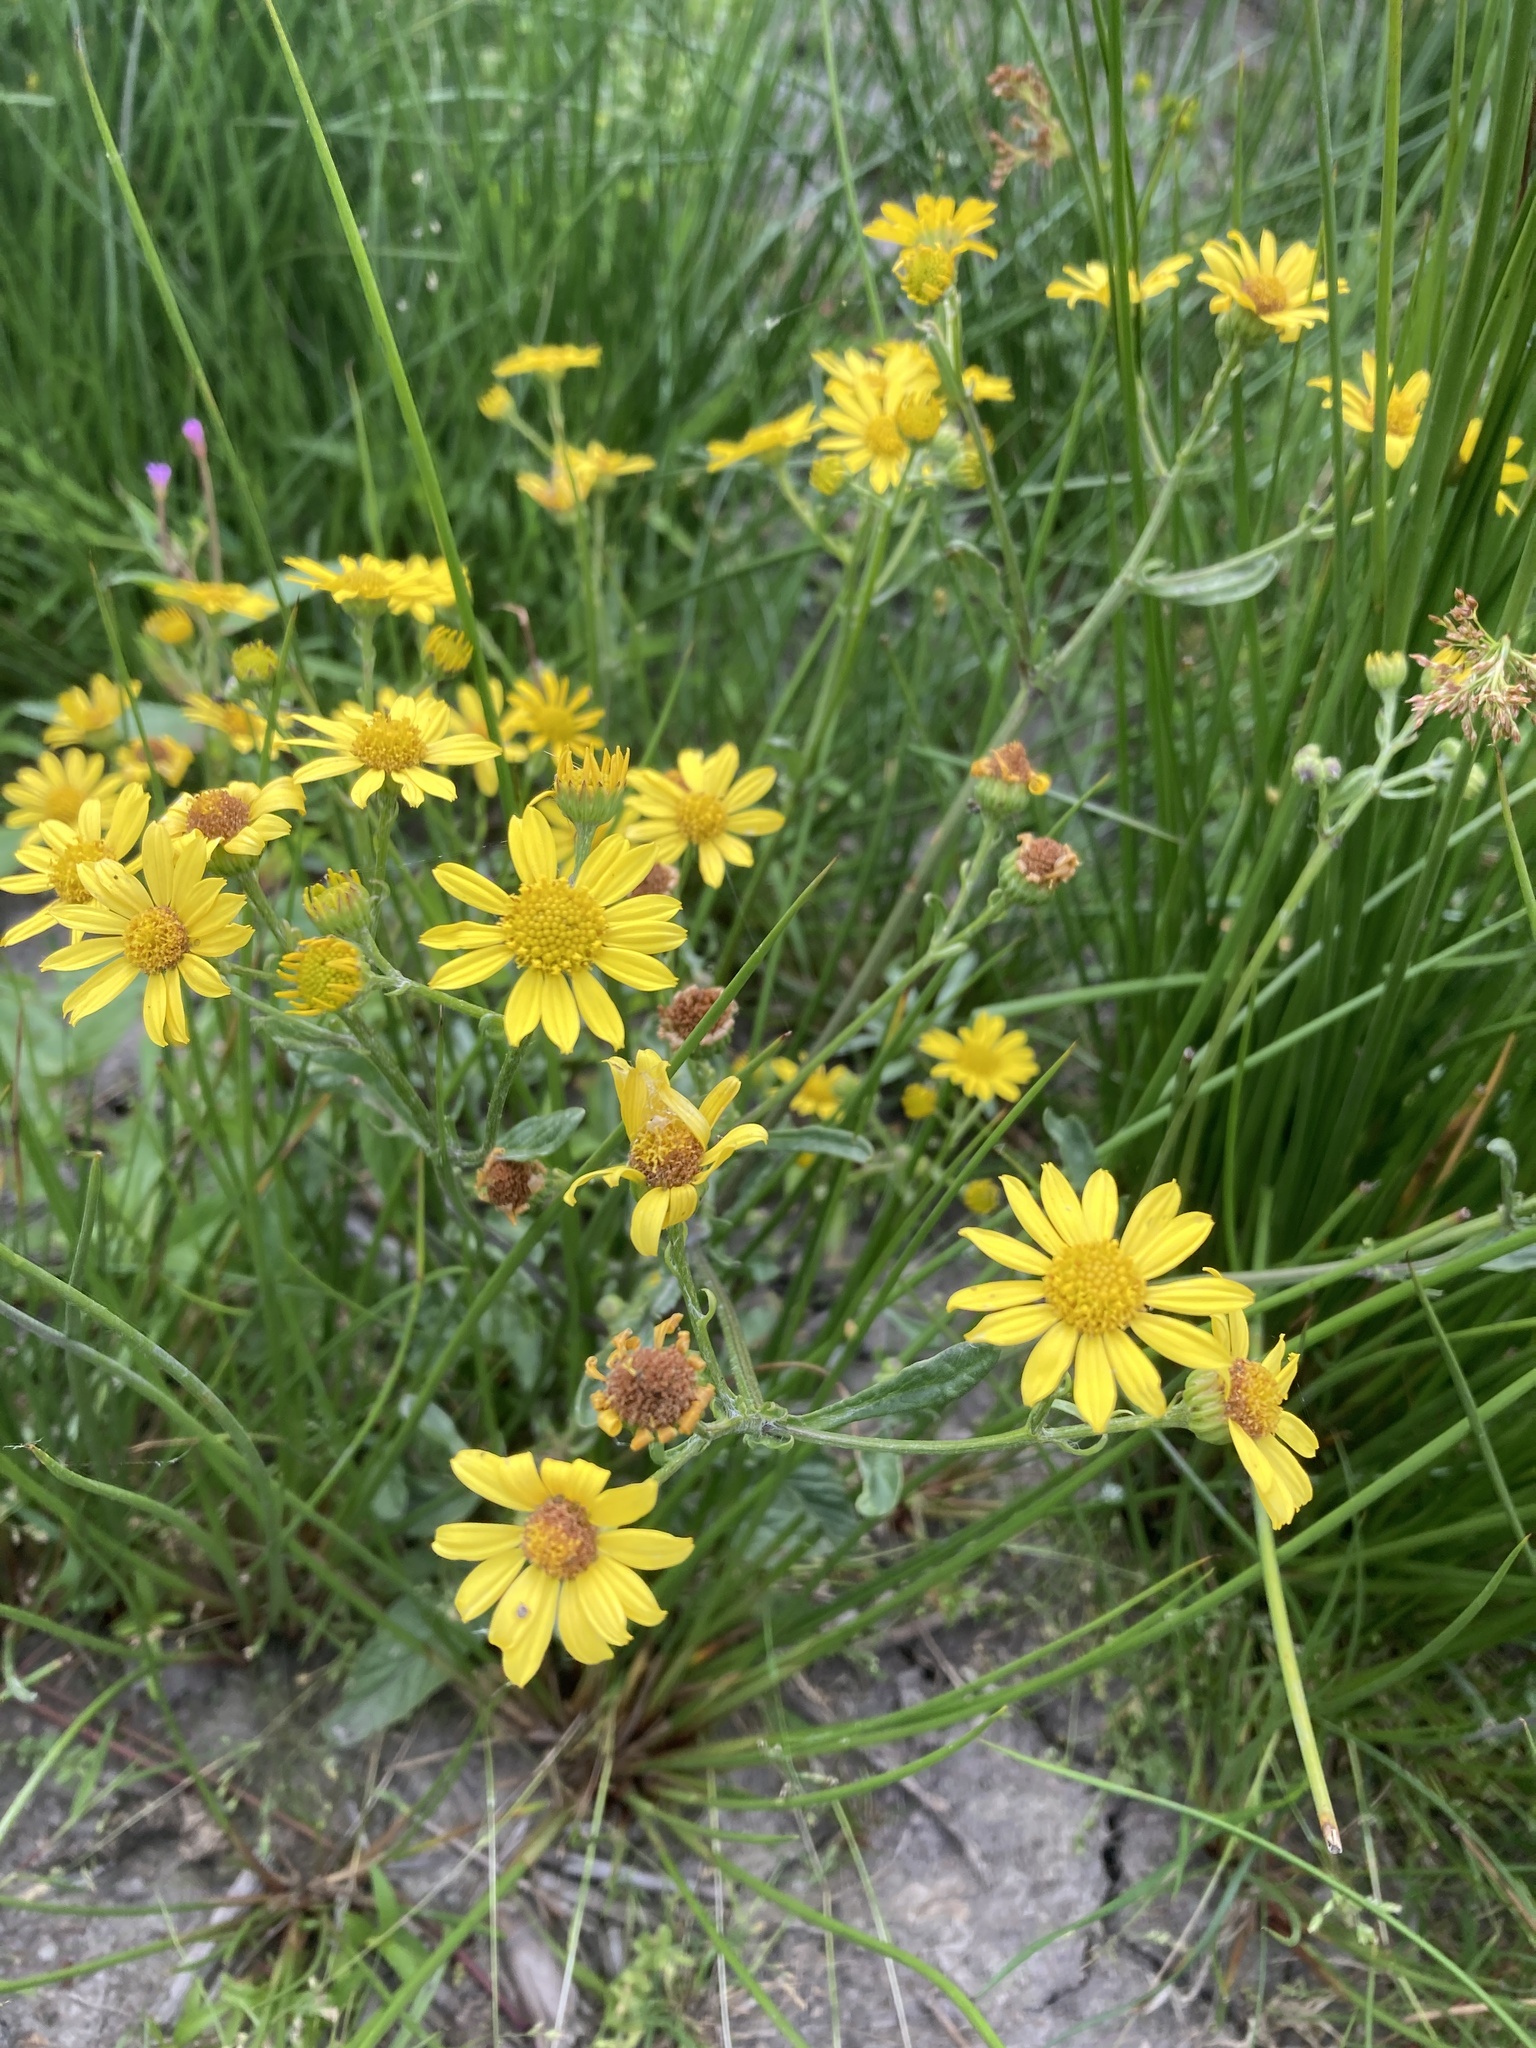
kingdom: Plantae
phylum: Tracheophyta
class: Magnoliopsida
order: Asterales
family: Asteraceae
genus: Jacobaea
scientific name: Jacobaea aquatica
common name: Water ragwort
